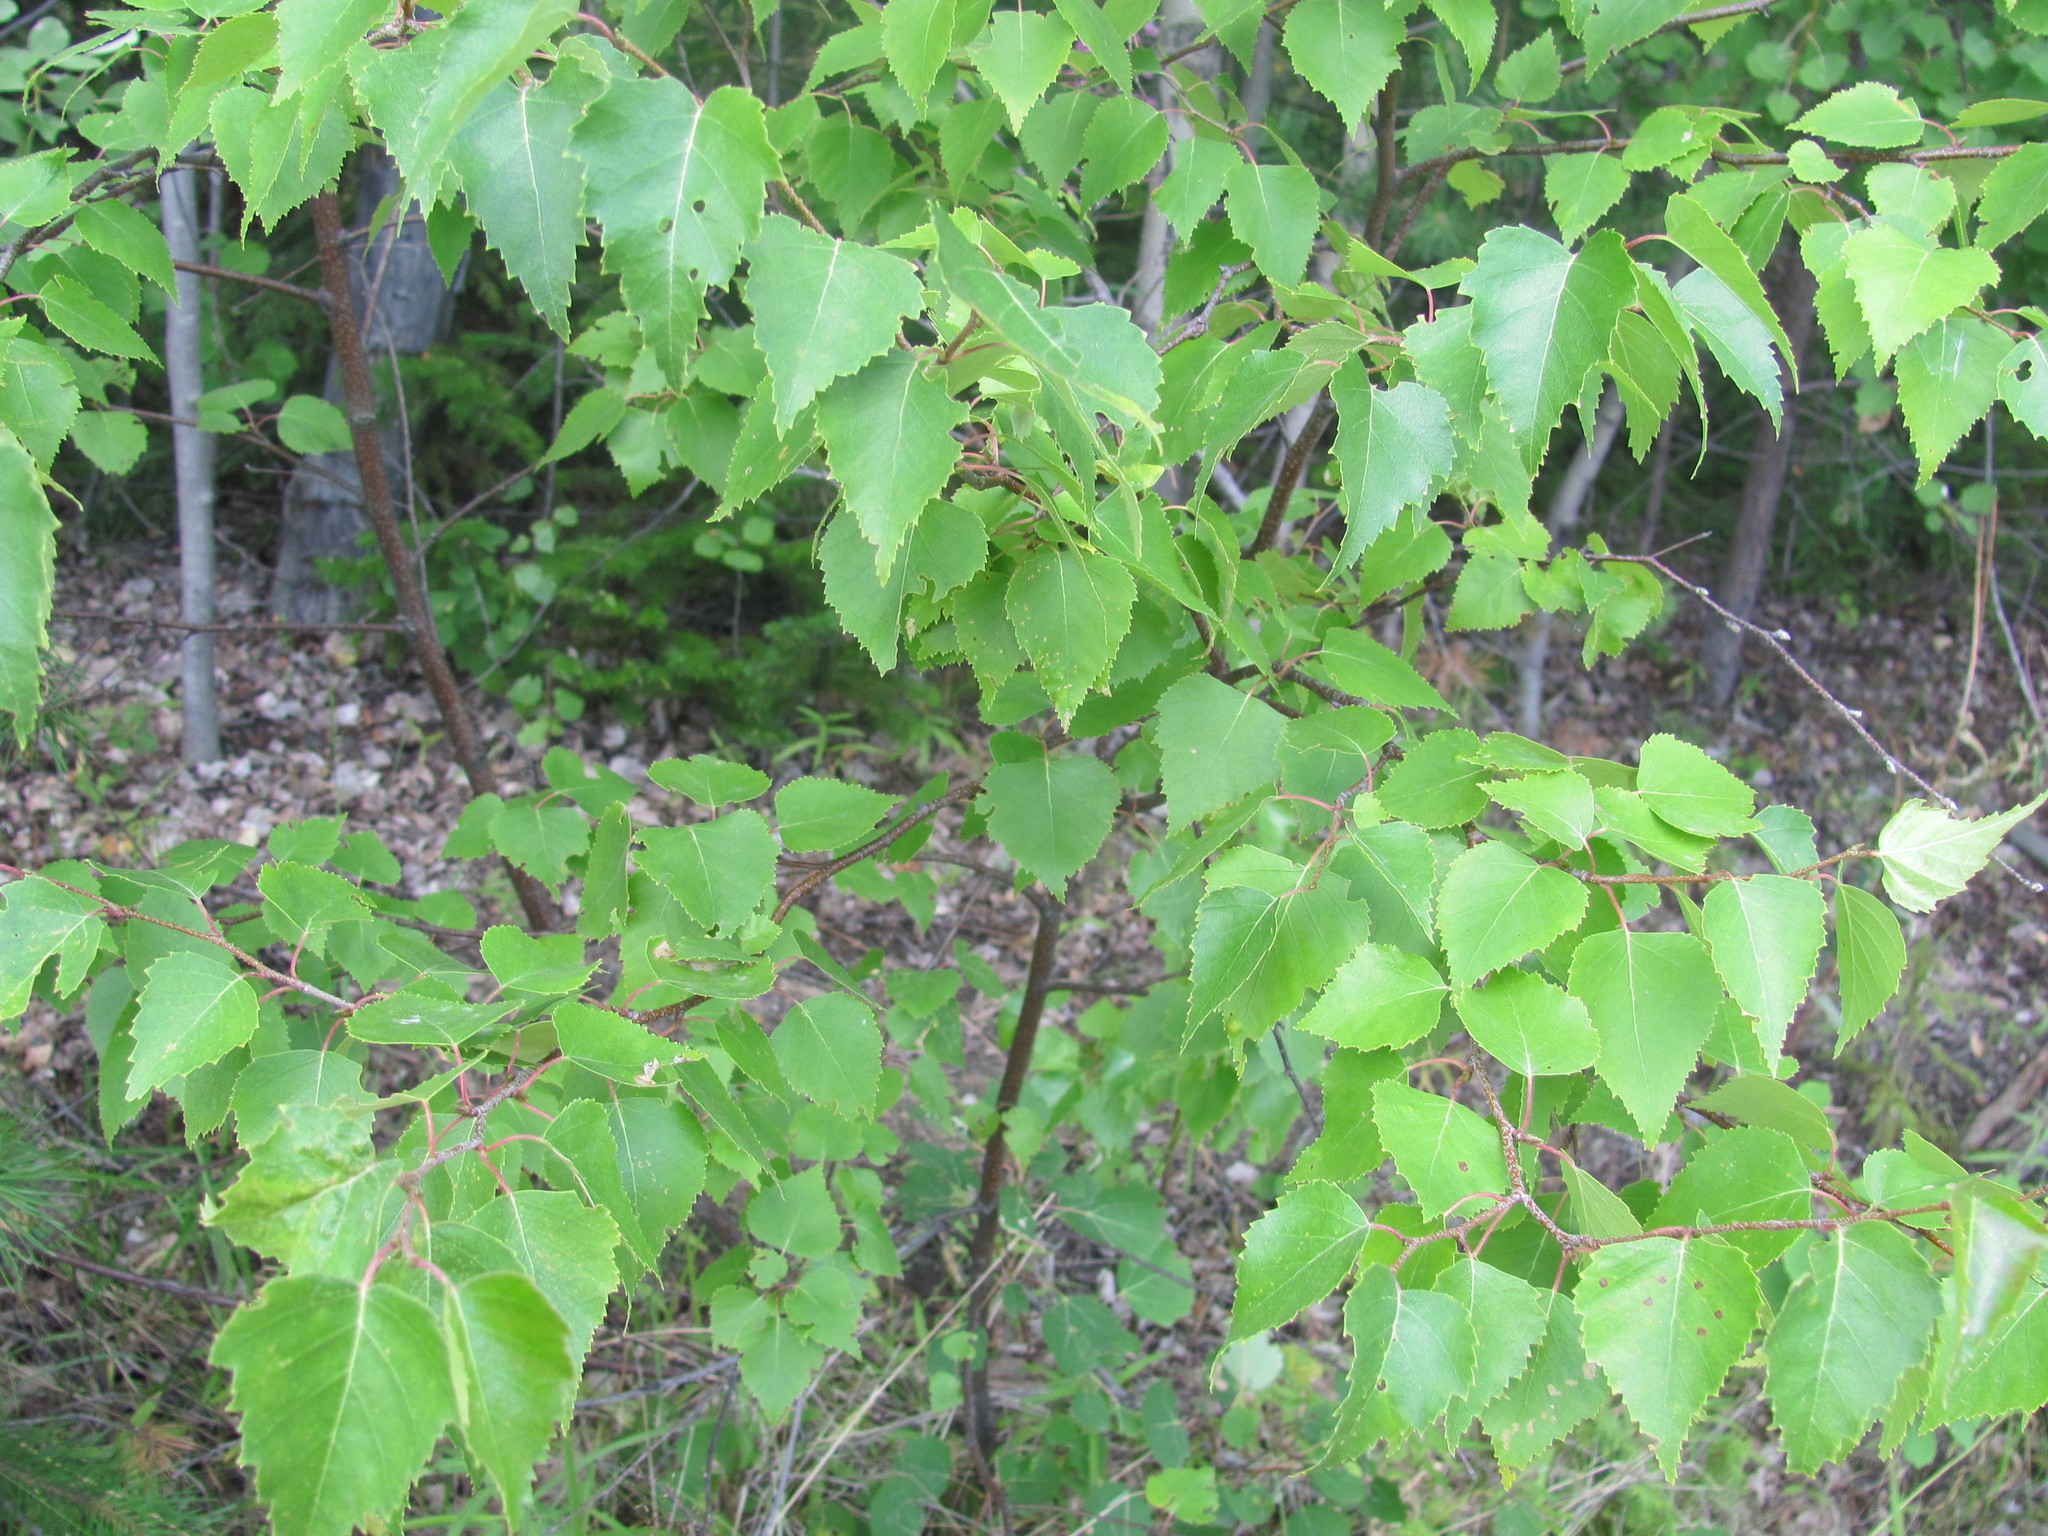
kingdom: Plantae
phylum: Tracheophyta
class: Magnoliopsida
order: Fagales
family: Betulaceae
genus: Betula
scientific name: Betula pendula
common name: Silver birch
